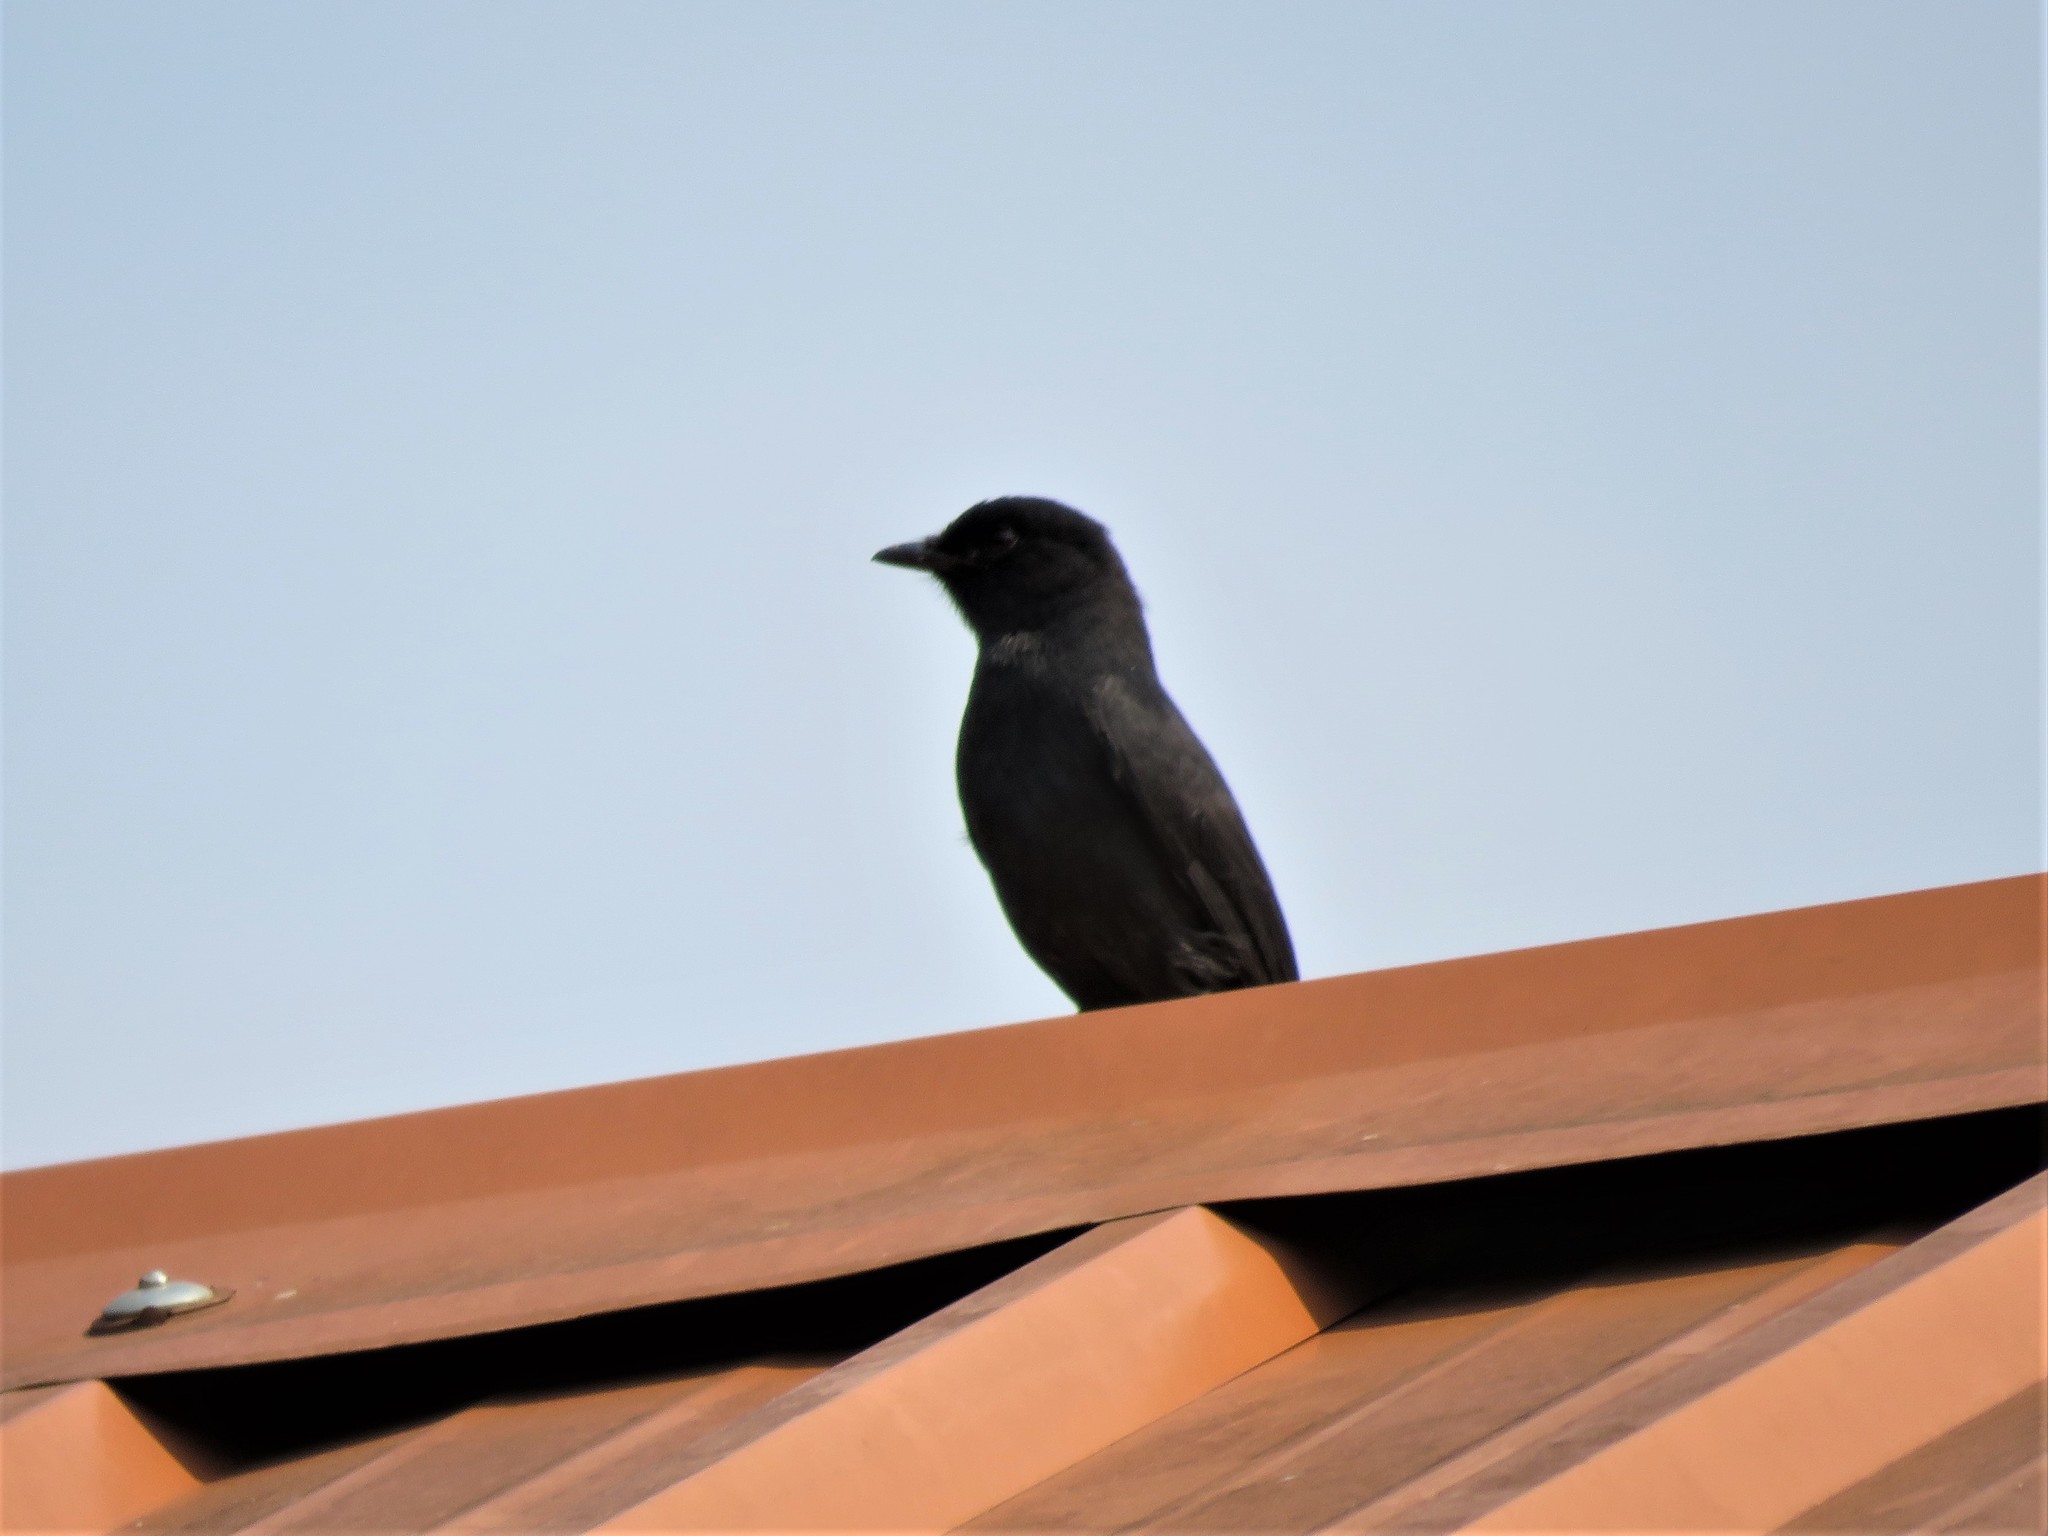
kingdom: Animalia
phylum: Chordata
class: Aves
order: Passeriformes
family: Muscicapidae
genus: Melaenornis
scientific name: Melaenornis edolioides
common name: Northern black flycatcher
